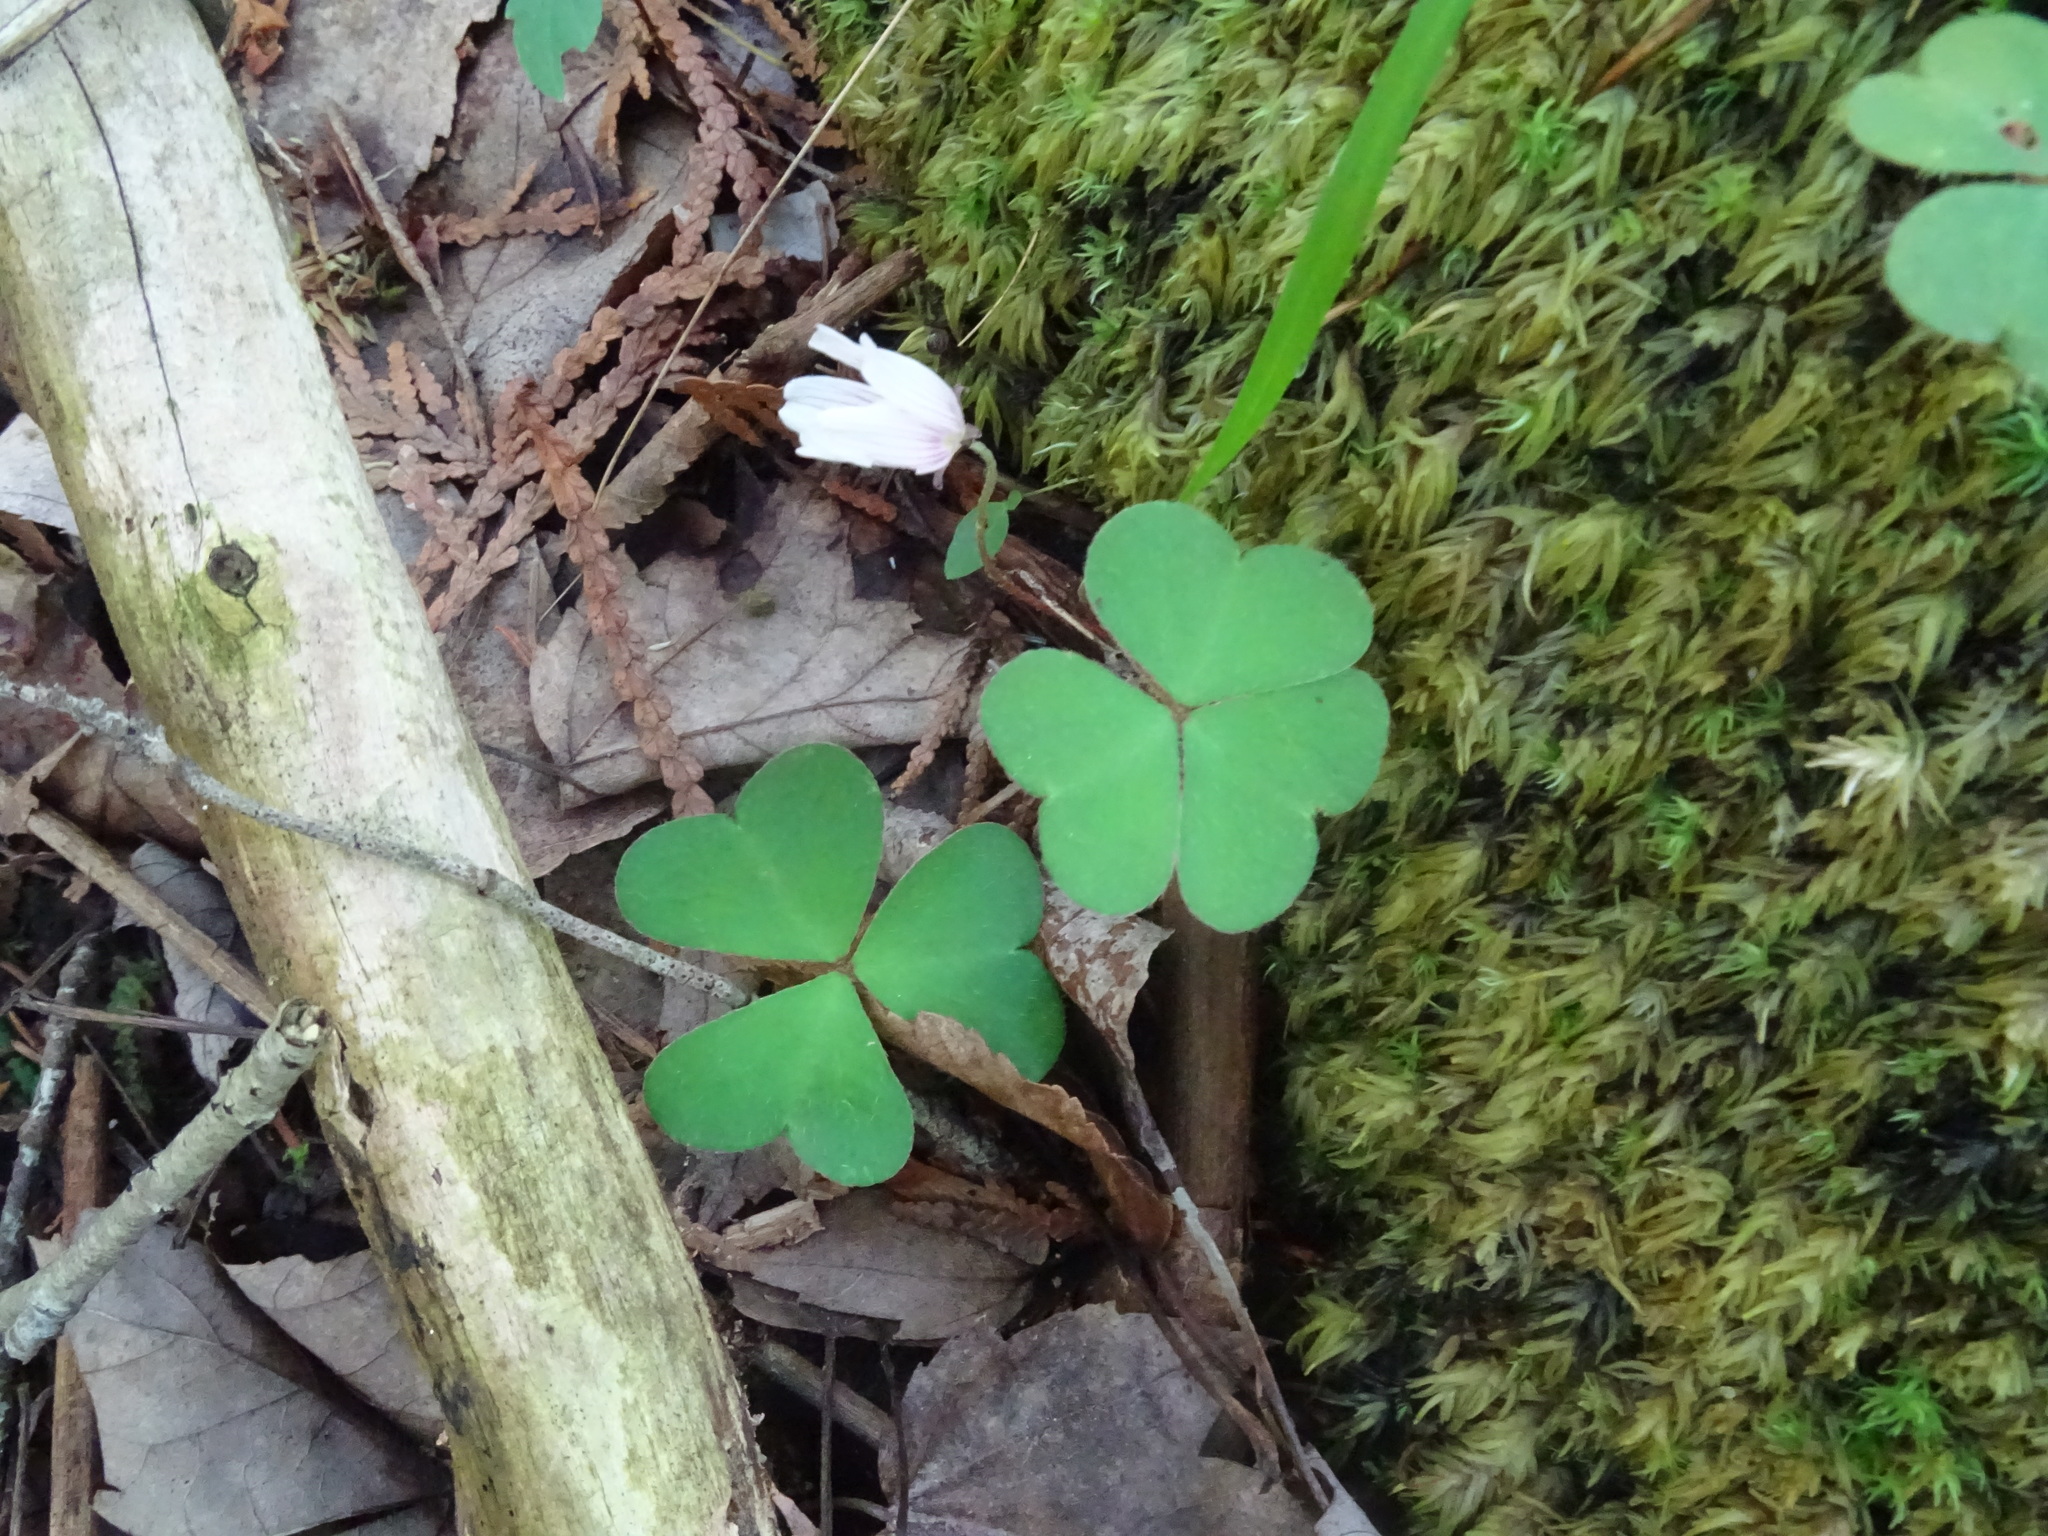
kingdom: Plantae
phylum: Tracheophyta
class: Magnoliopsida
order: Oxalidales
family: Oxalidaceae
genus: Oxalis
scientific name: Oxalis montana
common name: American wood-sorrel
